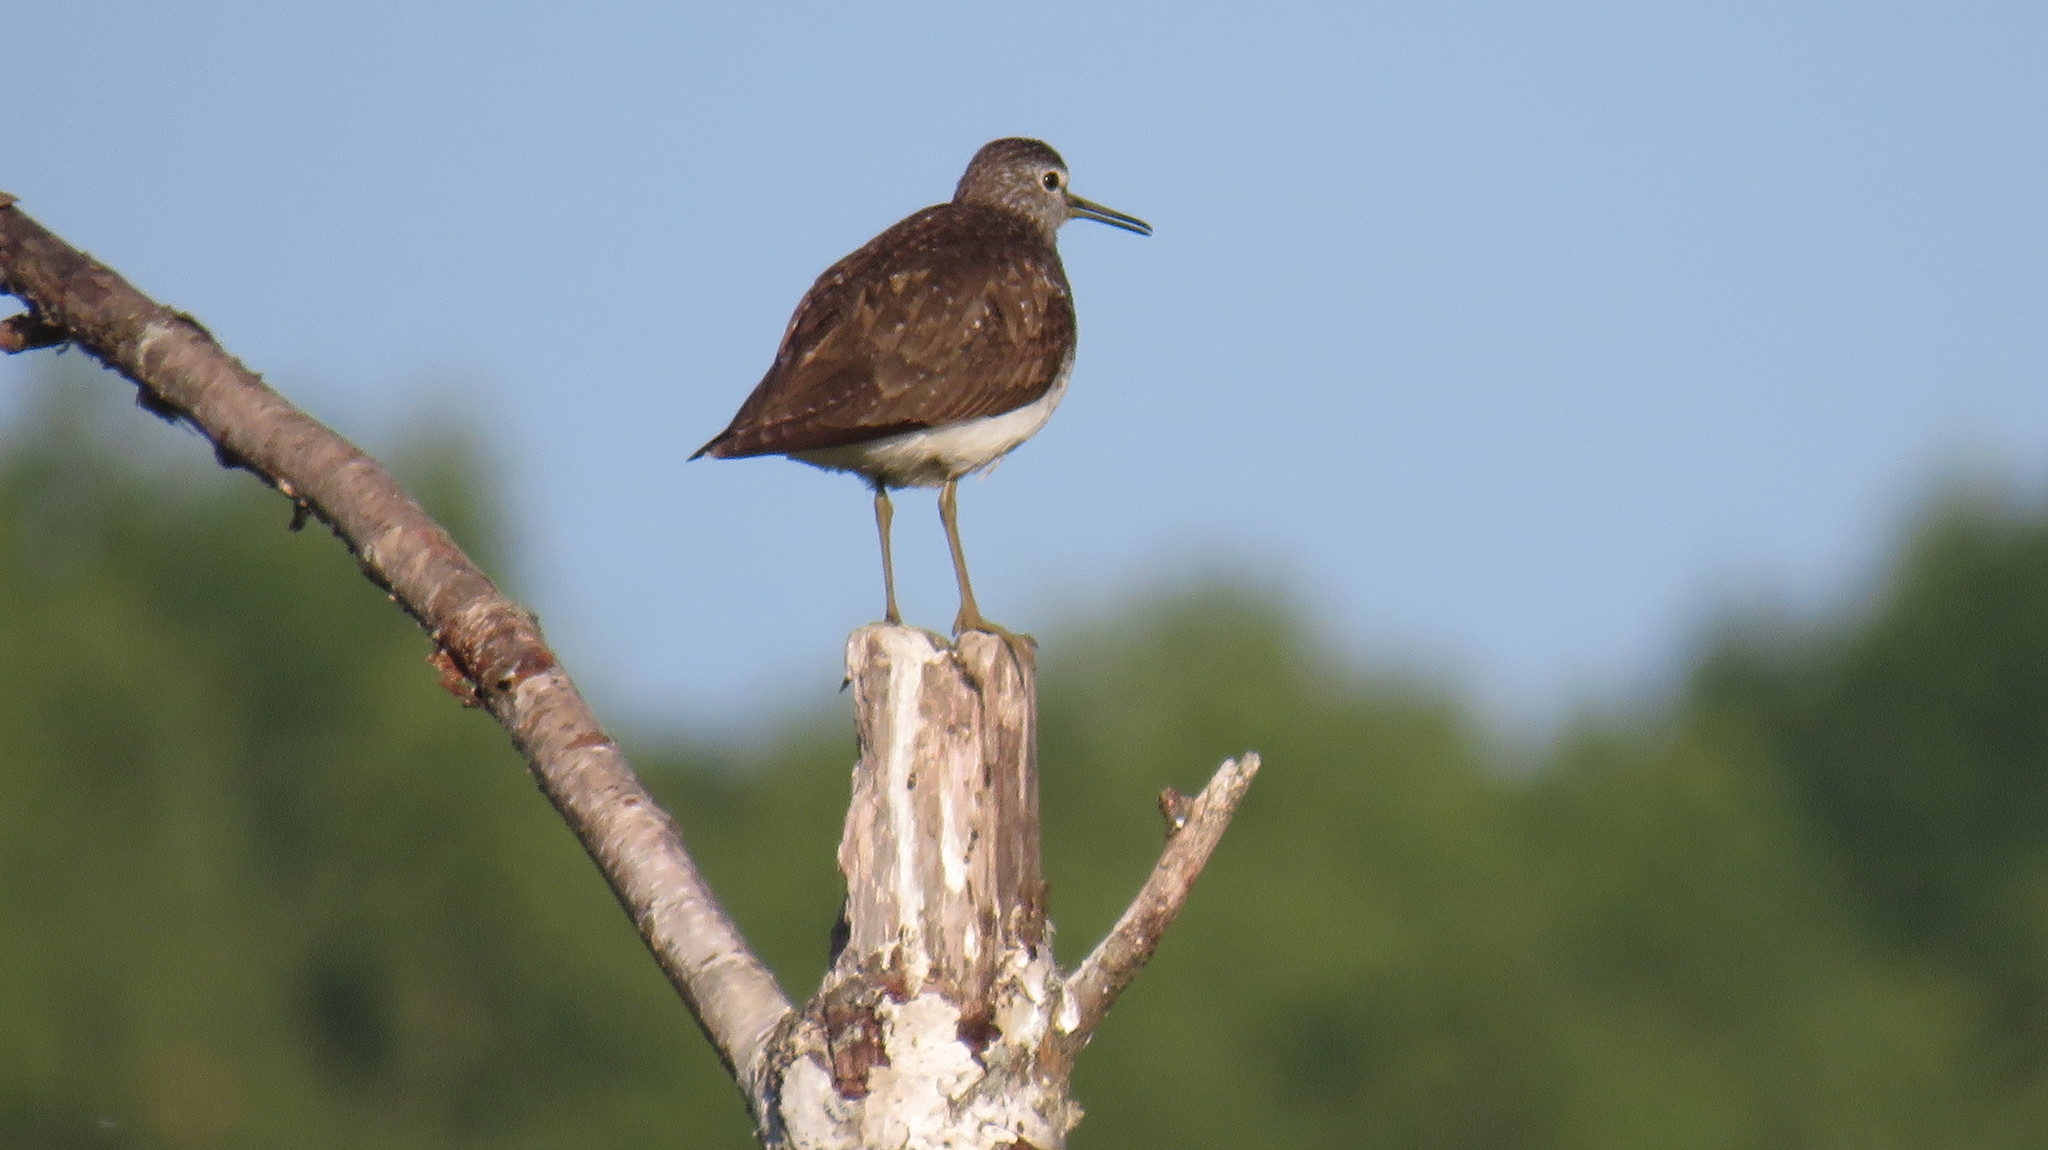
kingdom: Animalia
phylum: Chordata
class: Aves
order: Charadriiformes
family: Scolopacidae
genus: Tringa
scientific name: Tringa ochropus
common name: Green sandpiper
